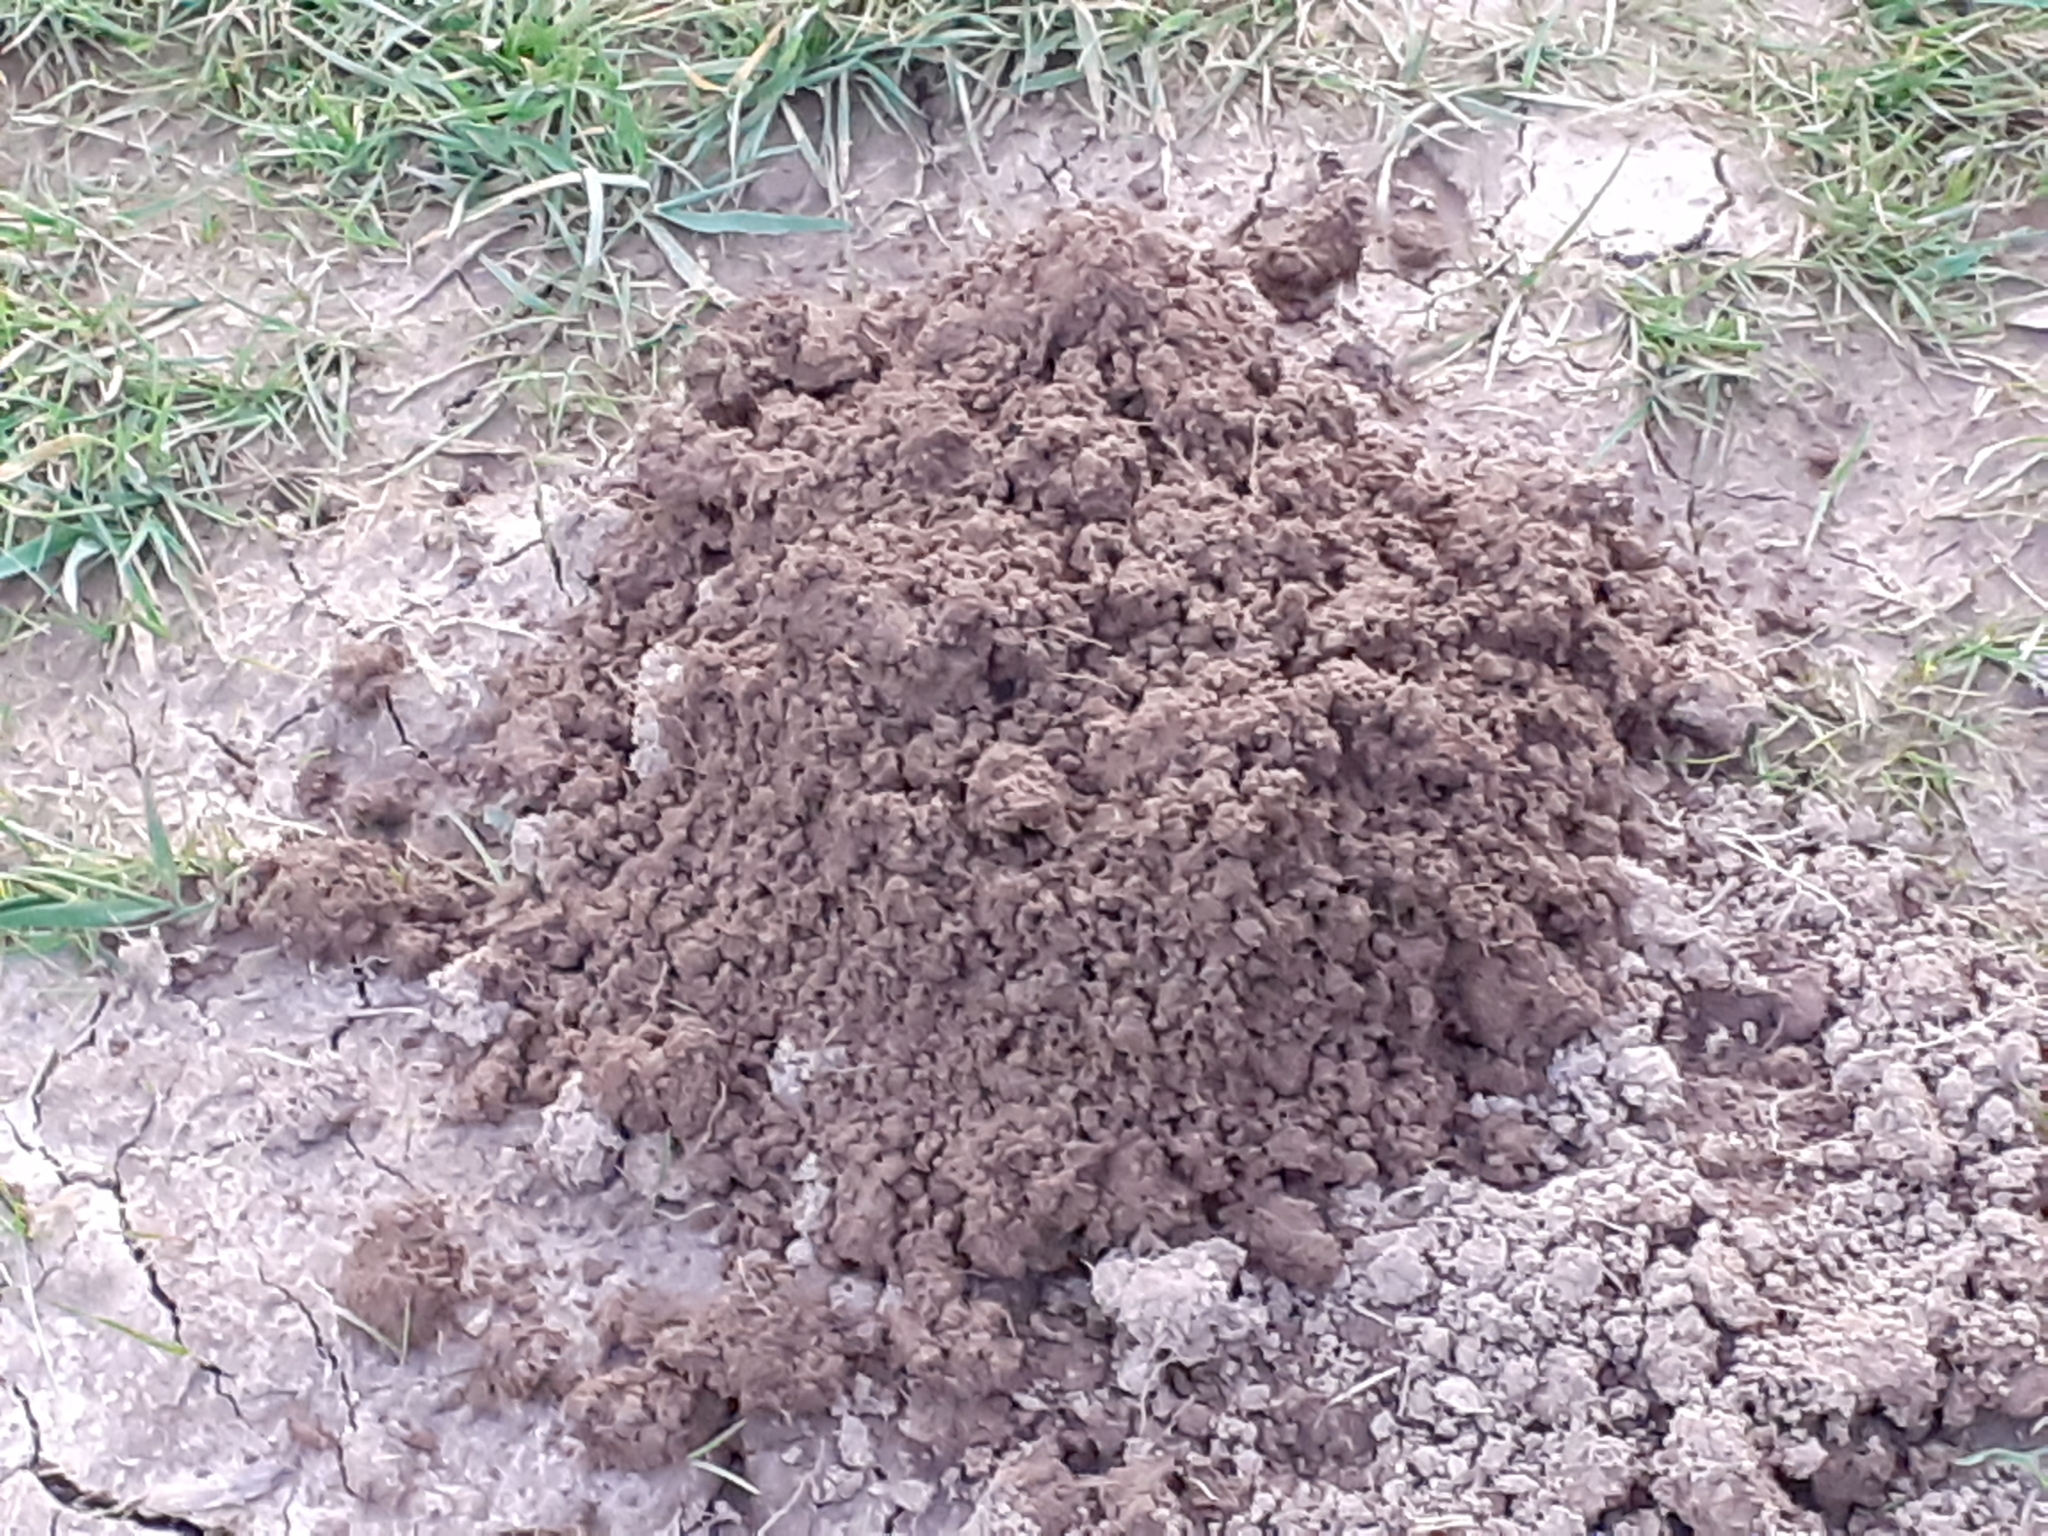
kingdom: Animalia
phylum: Chordata
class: Mammalia
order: Soricomorpha
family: Talpidae
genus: Talpa
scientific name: Talpa europaea
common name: European mole
